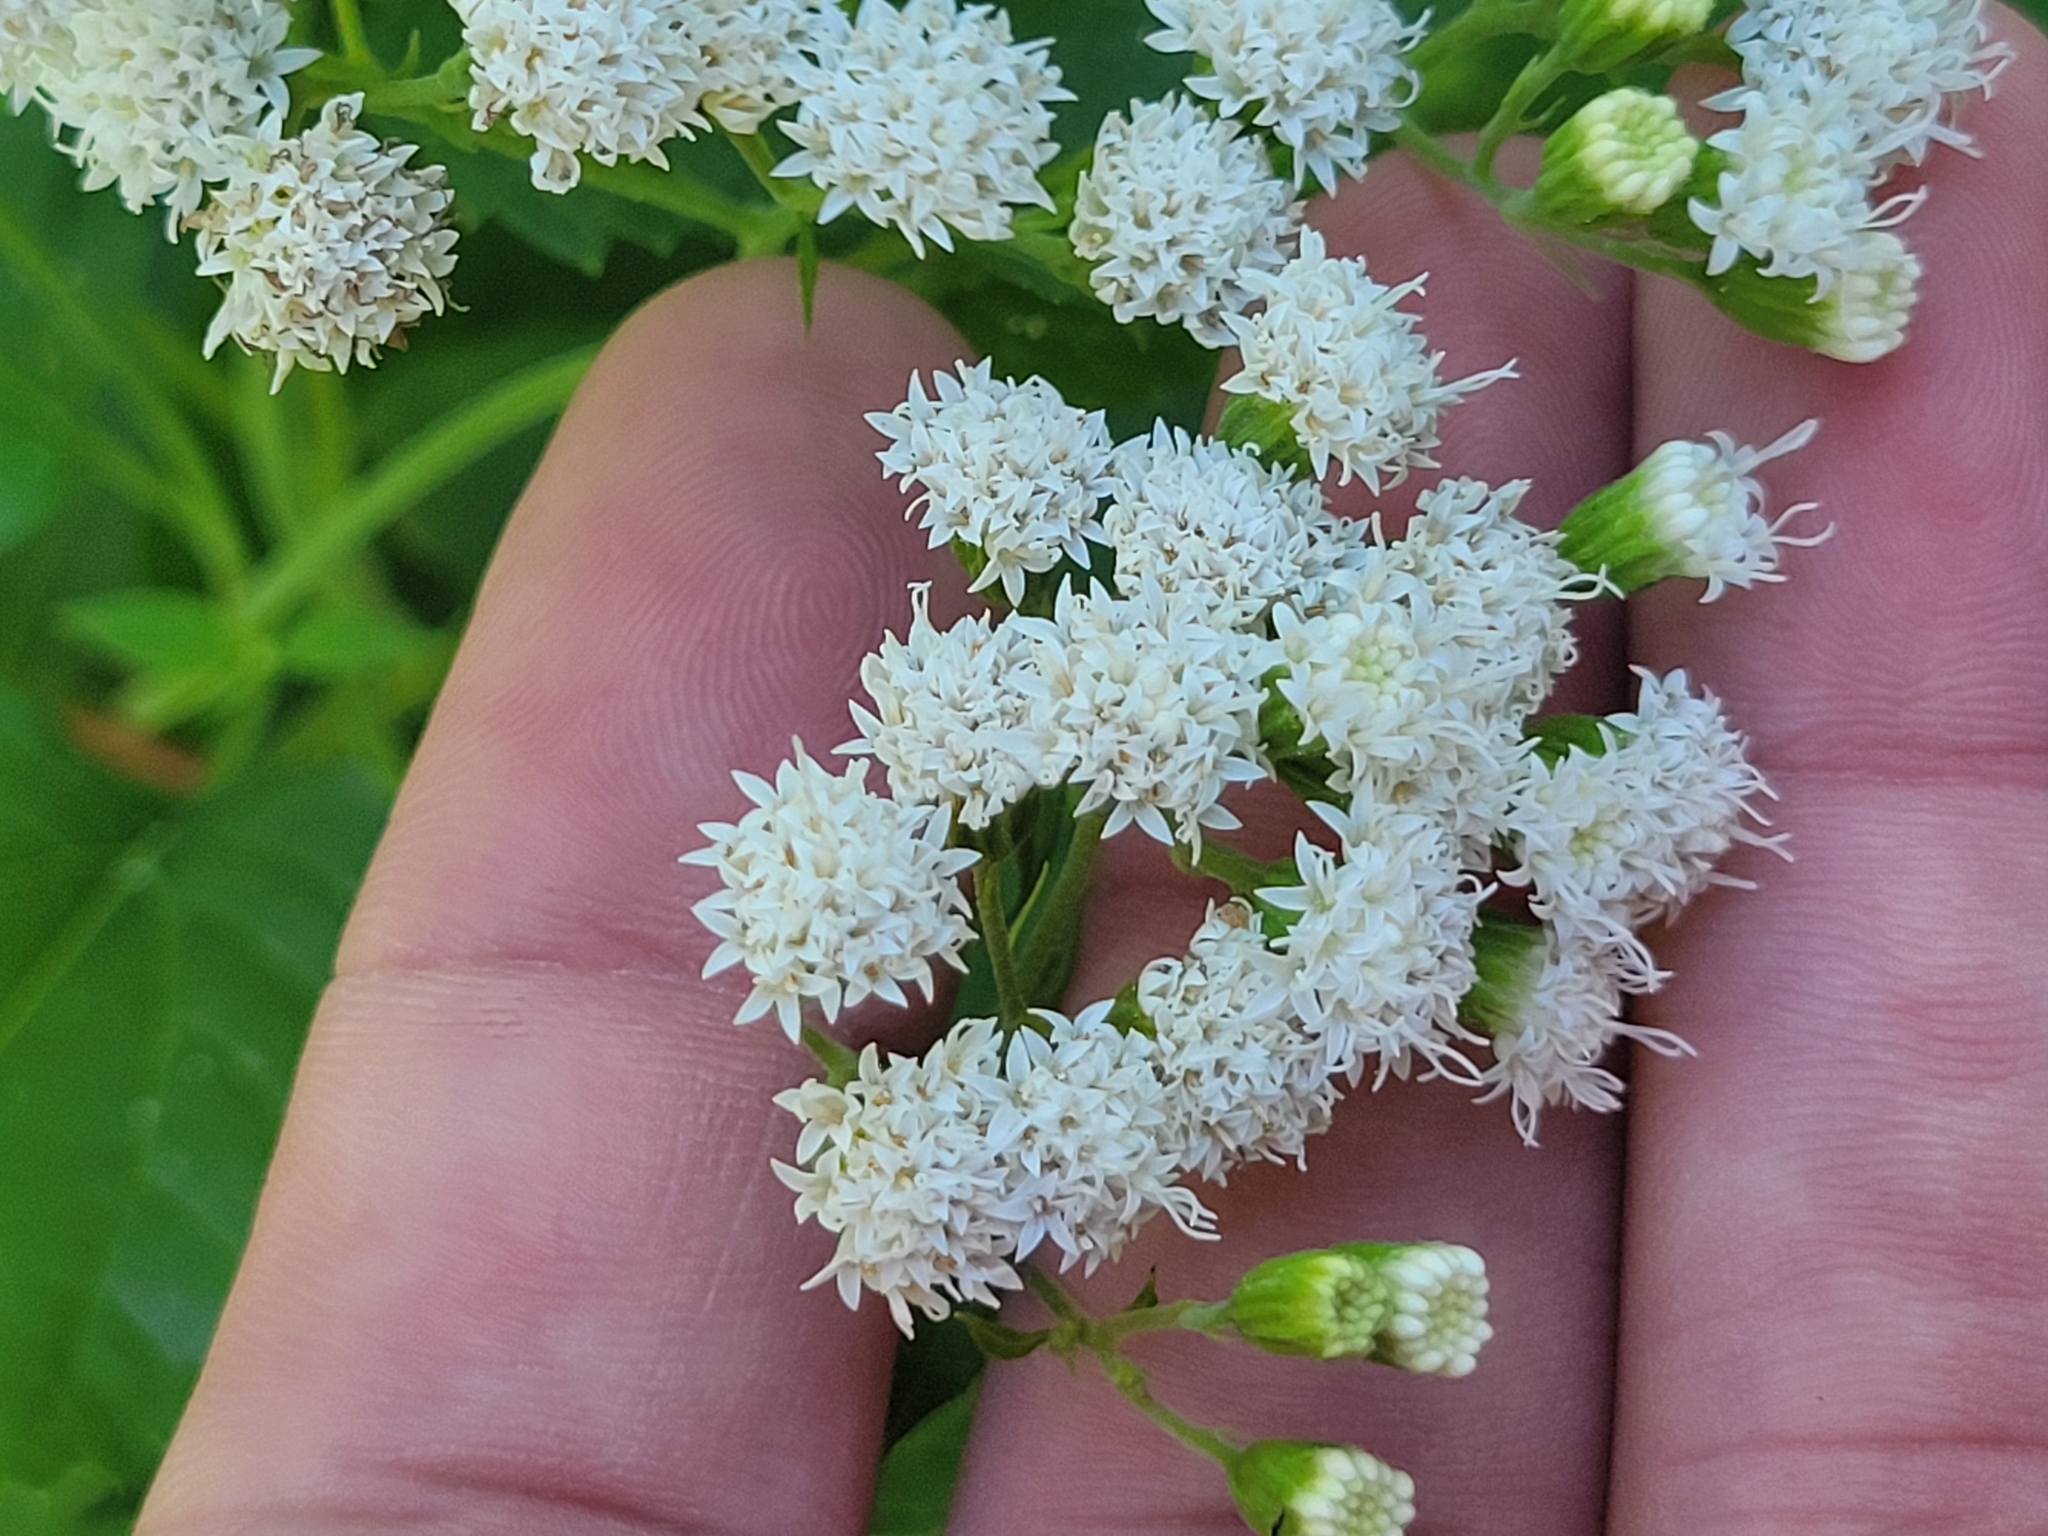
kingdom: Plantae
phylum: Tracheophyta
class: Magnoliopsida
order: Asterales
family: Asteraceae
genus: Ageratina
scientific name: Ageratina altissima
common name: White snakeroot
